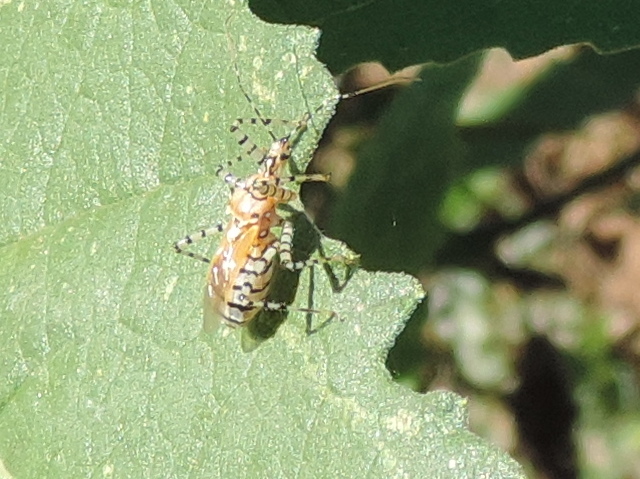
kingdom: Animalia
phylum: Arthropoda
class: Insecta
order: Hemiptera
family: Reduviidae
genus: Pselliopus
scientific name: Pselliopus
